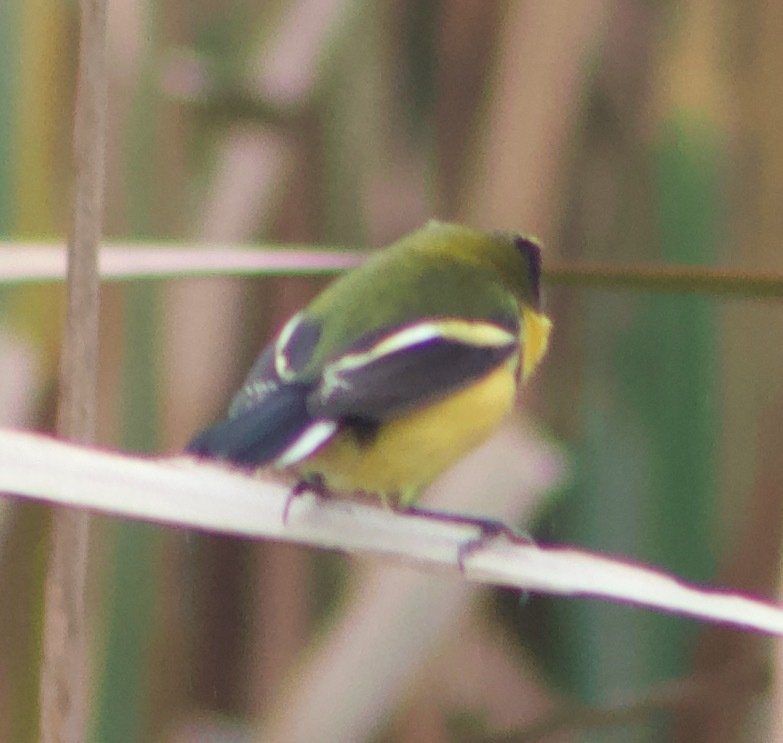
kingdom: Animalia
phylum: Chordata
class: Aves
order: Passeriformes
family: Tyrannidae
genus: Tachuris
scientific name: Tachuris rubrigastra
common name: Many-colored rush tyrant
